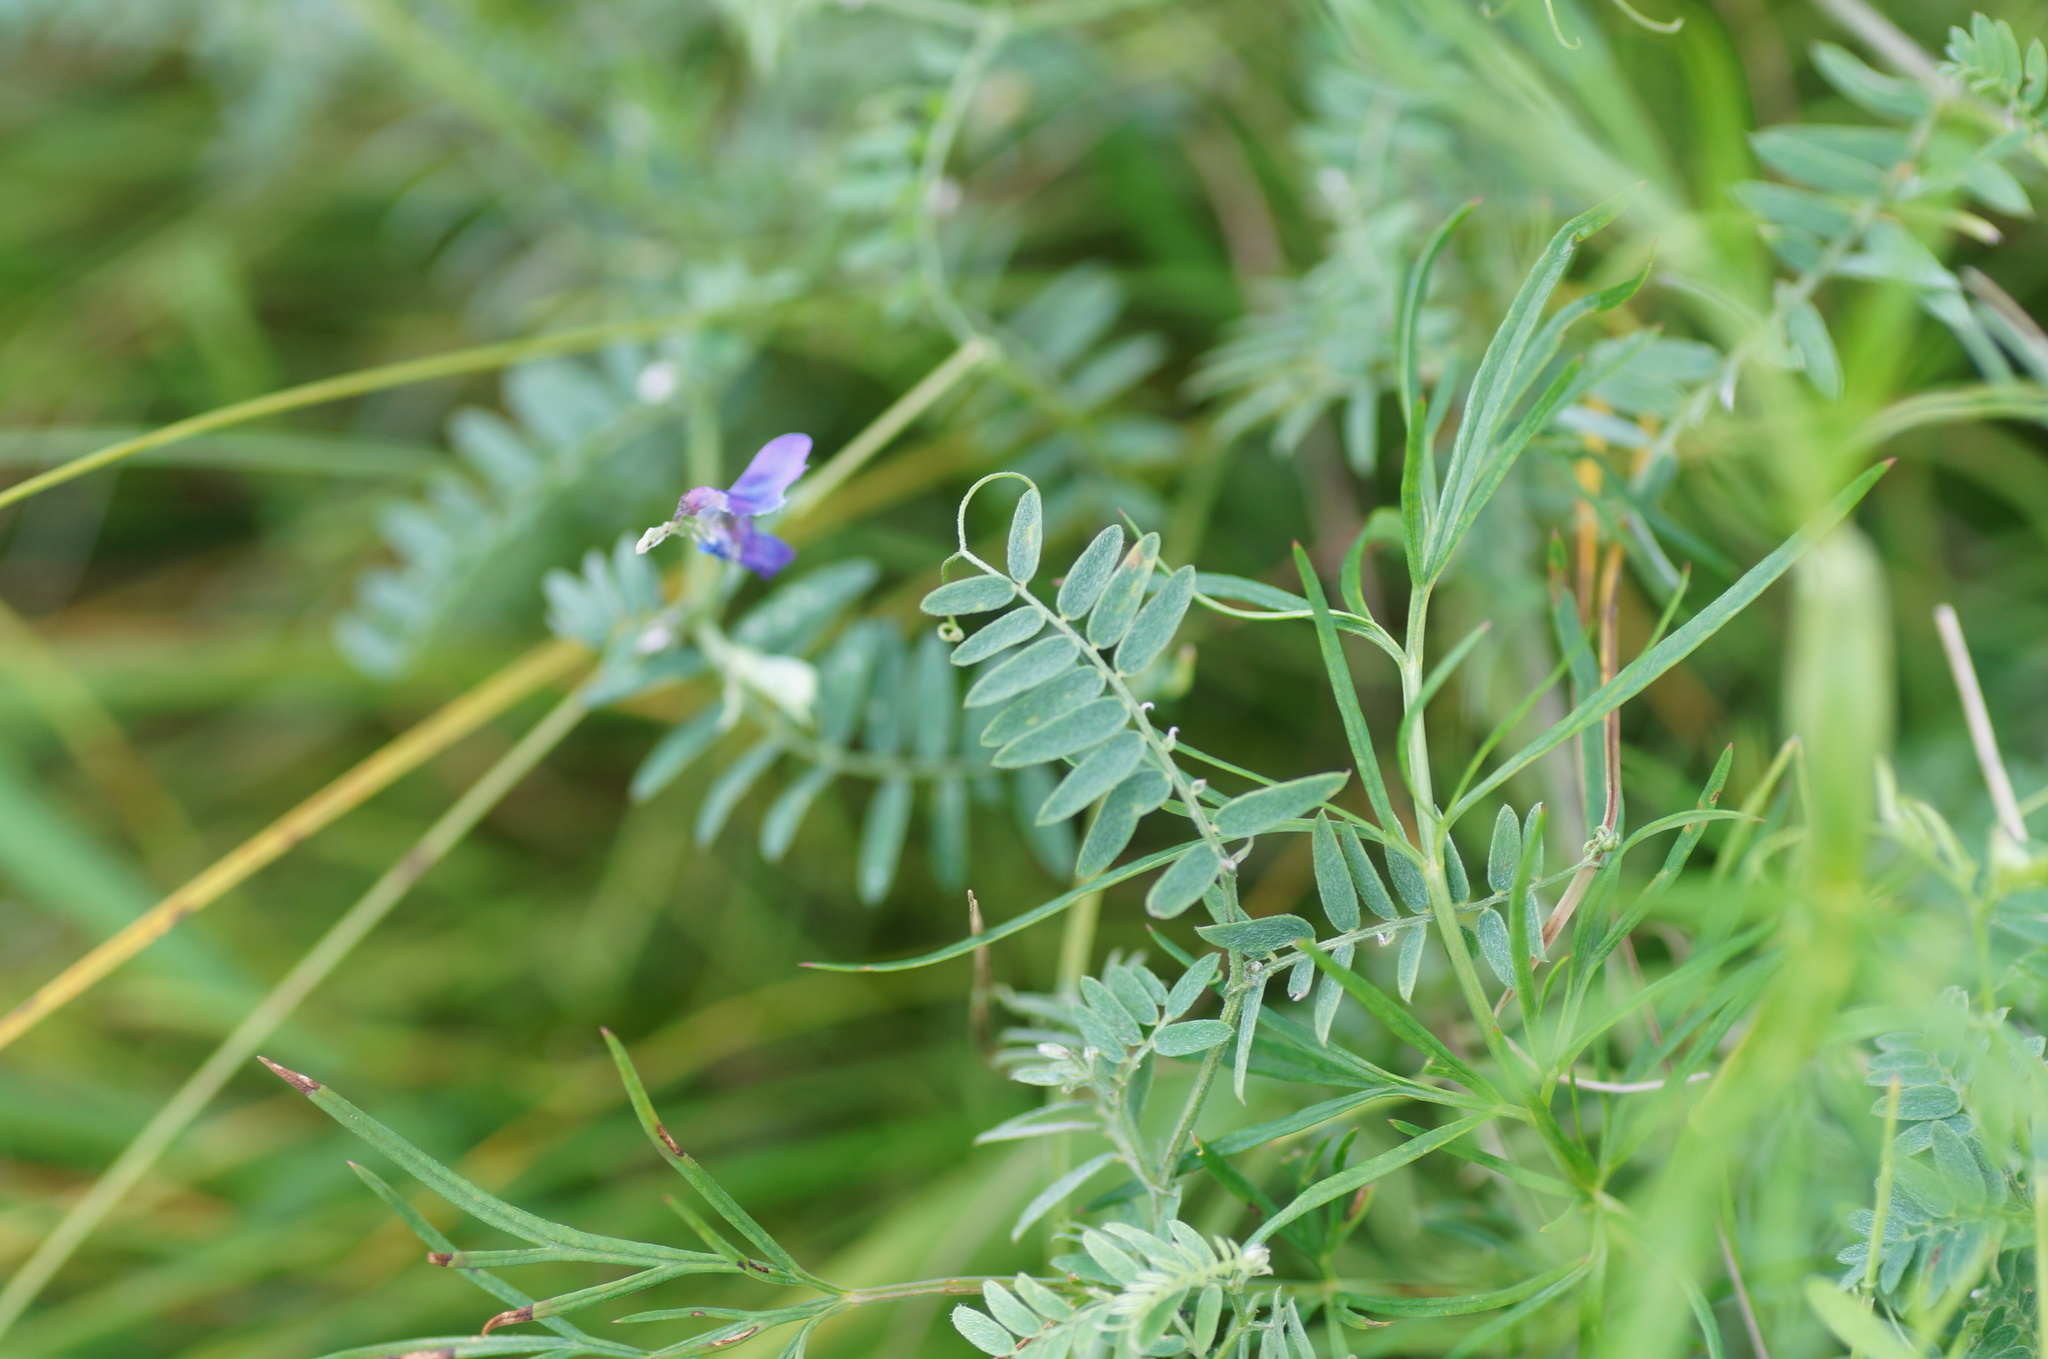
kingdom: Plantae
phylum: Tracheophyta
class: Magnoliopsida
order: Fabales
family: Fabaceae
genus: Vicia
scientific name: Vicia cracca
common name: Bird vetch
